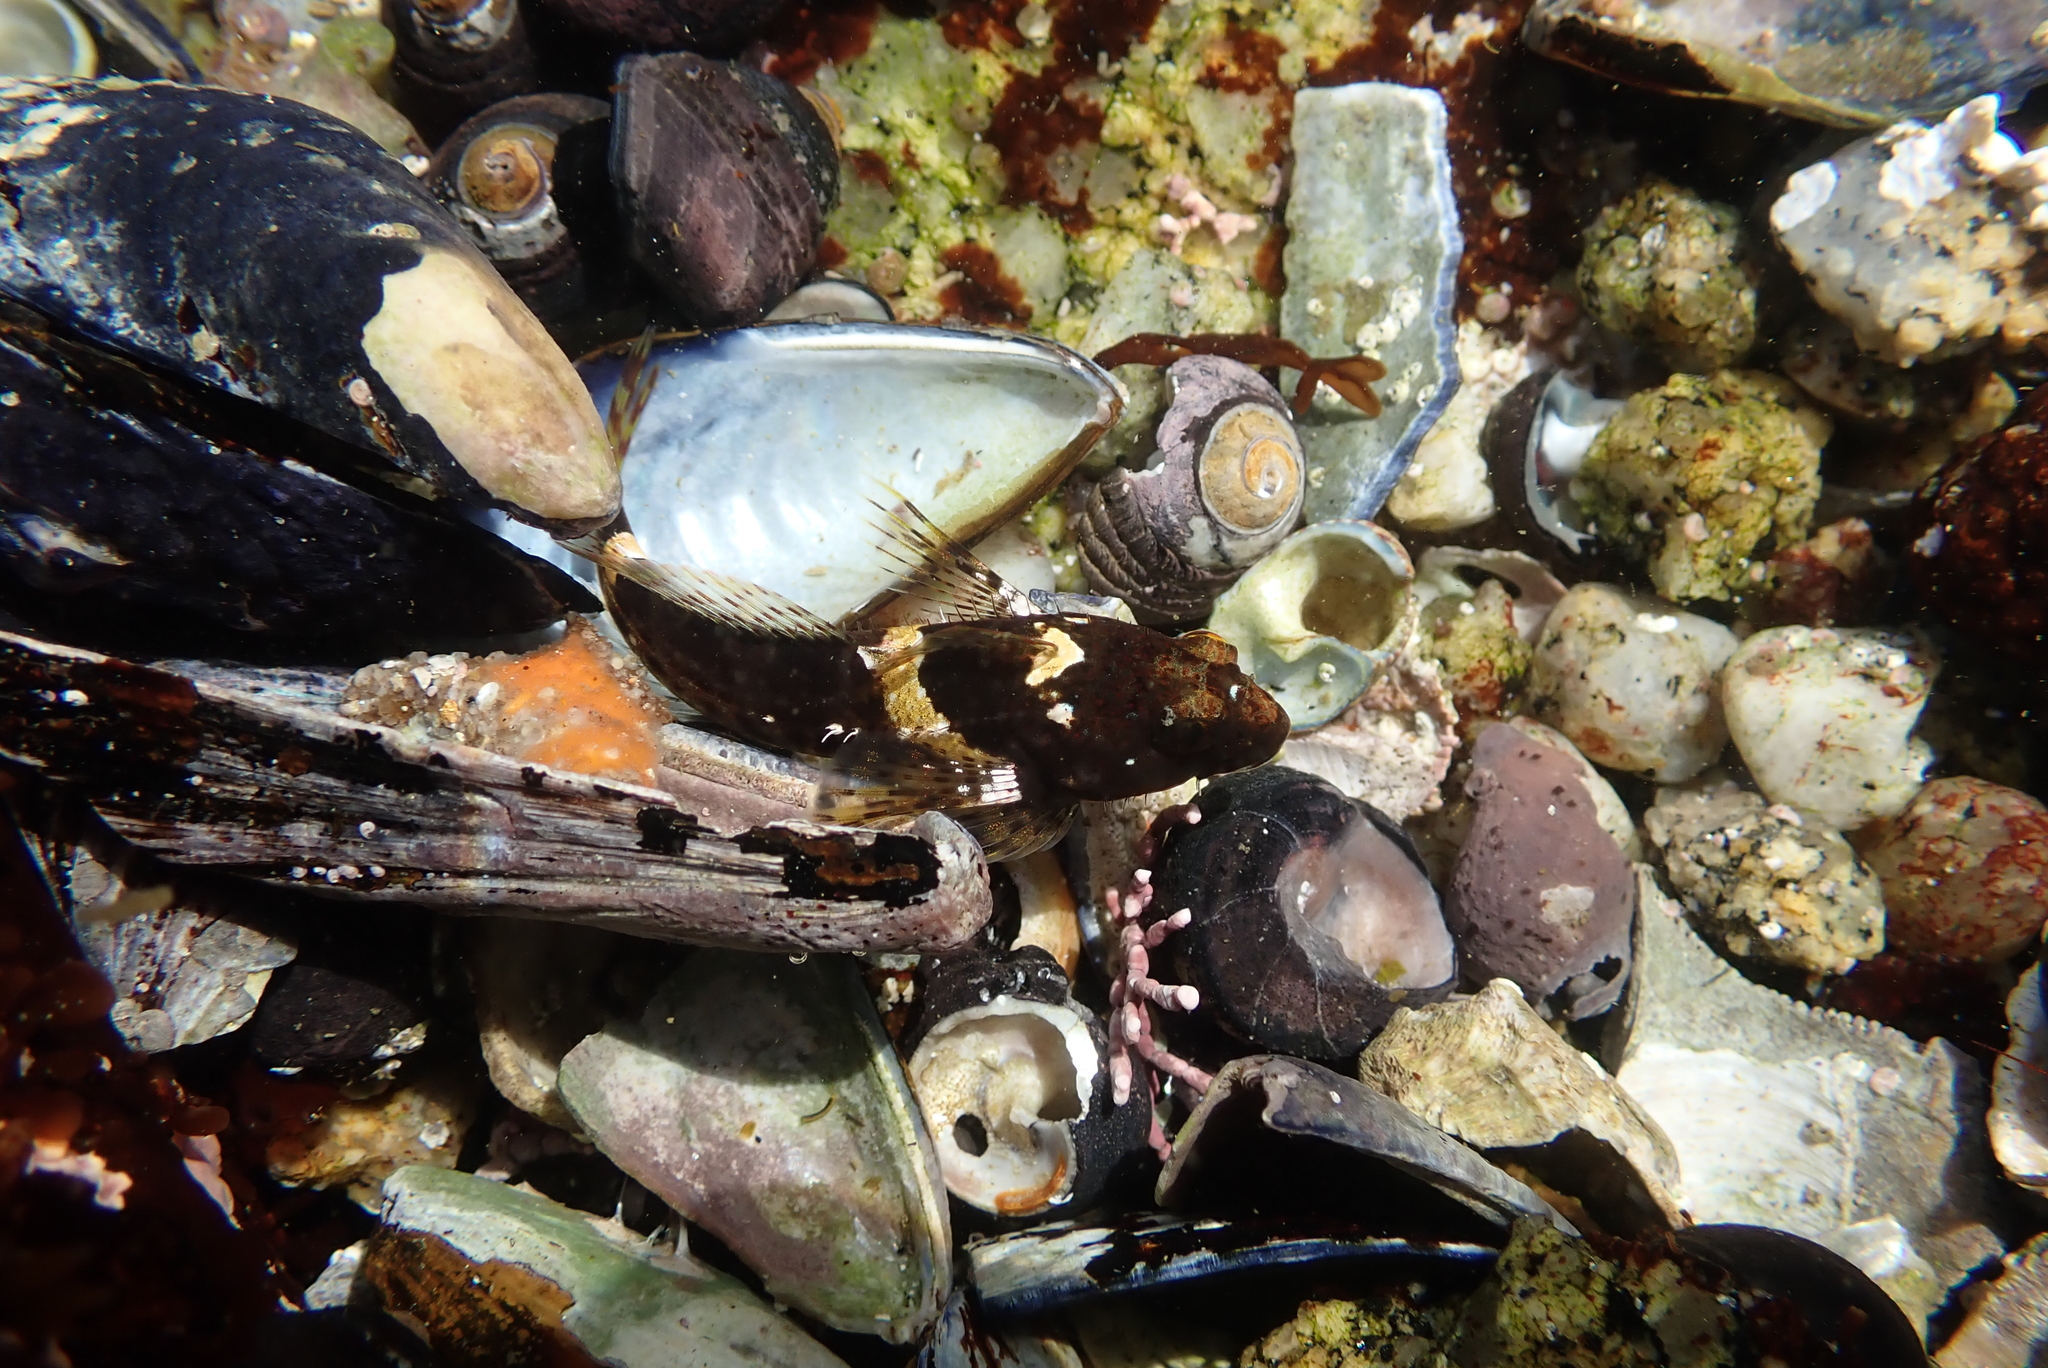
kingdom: Animalia
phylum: Chordata
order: Scorpaeniformes
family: Cottidae
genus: Clinocottus
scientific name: Clinocottus analis
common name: Woolly sculpin
